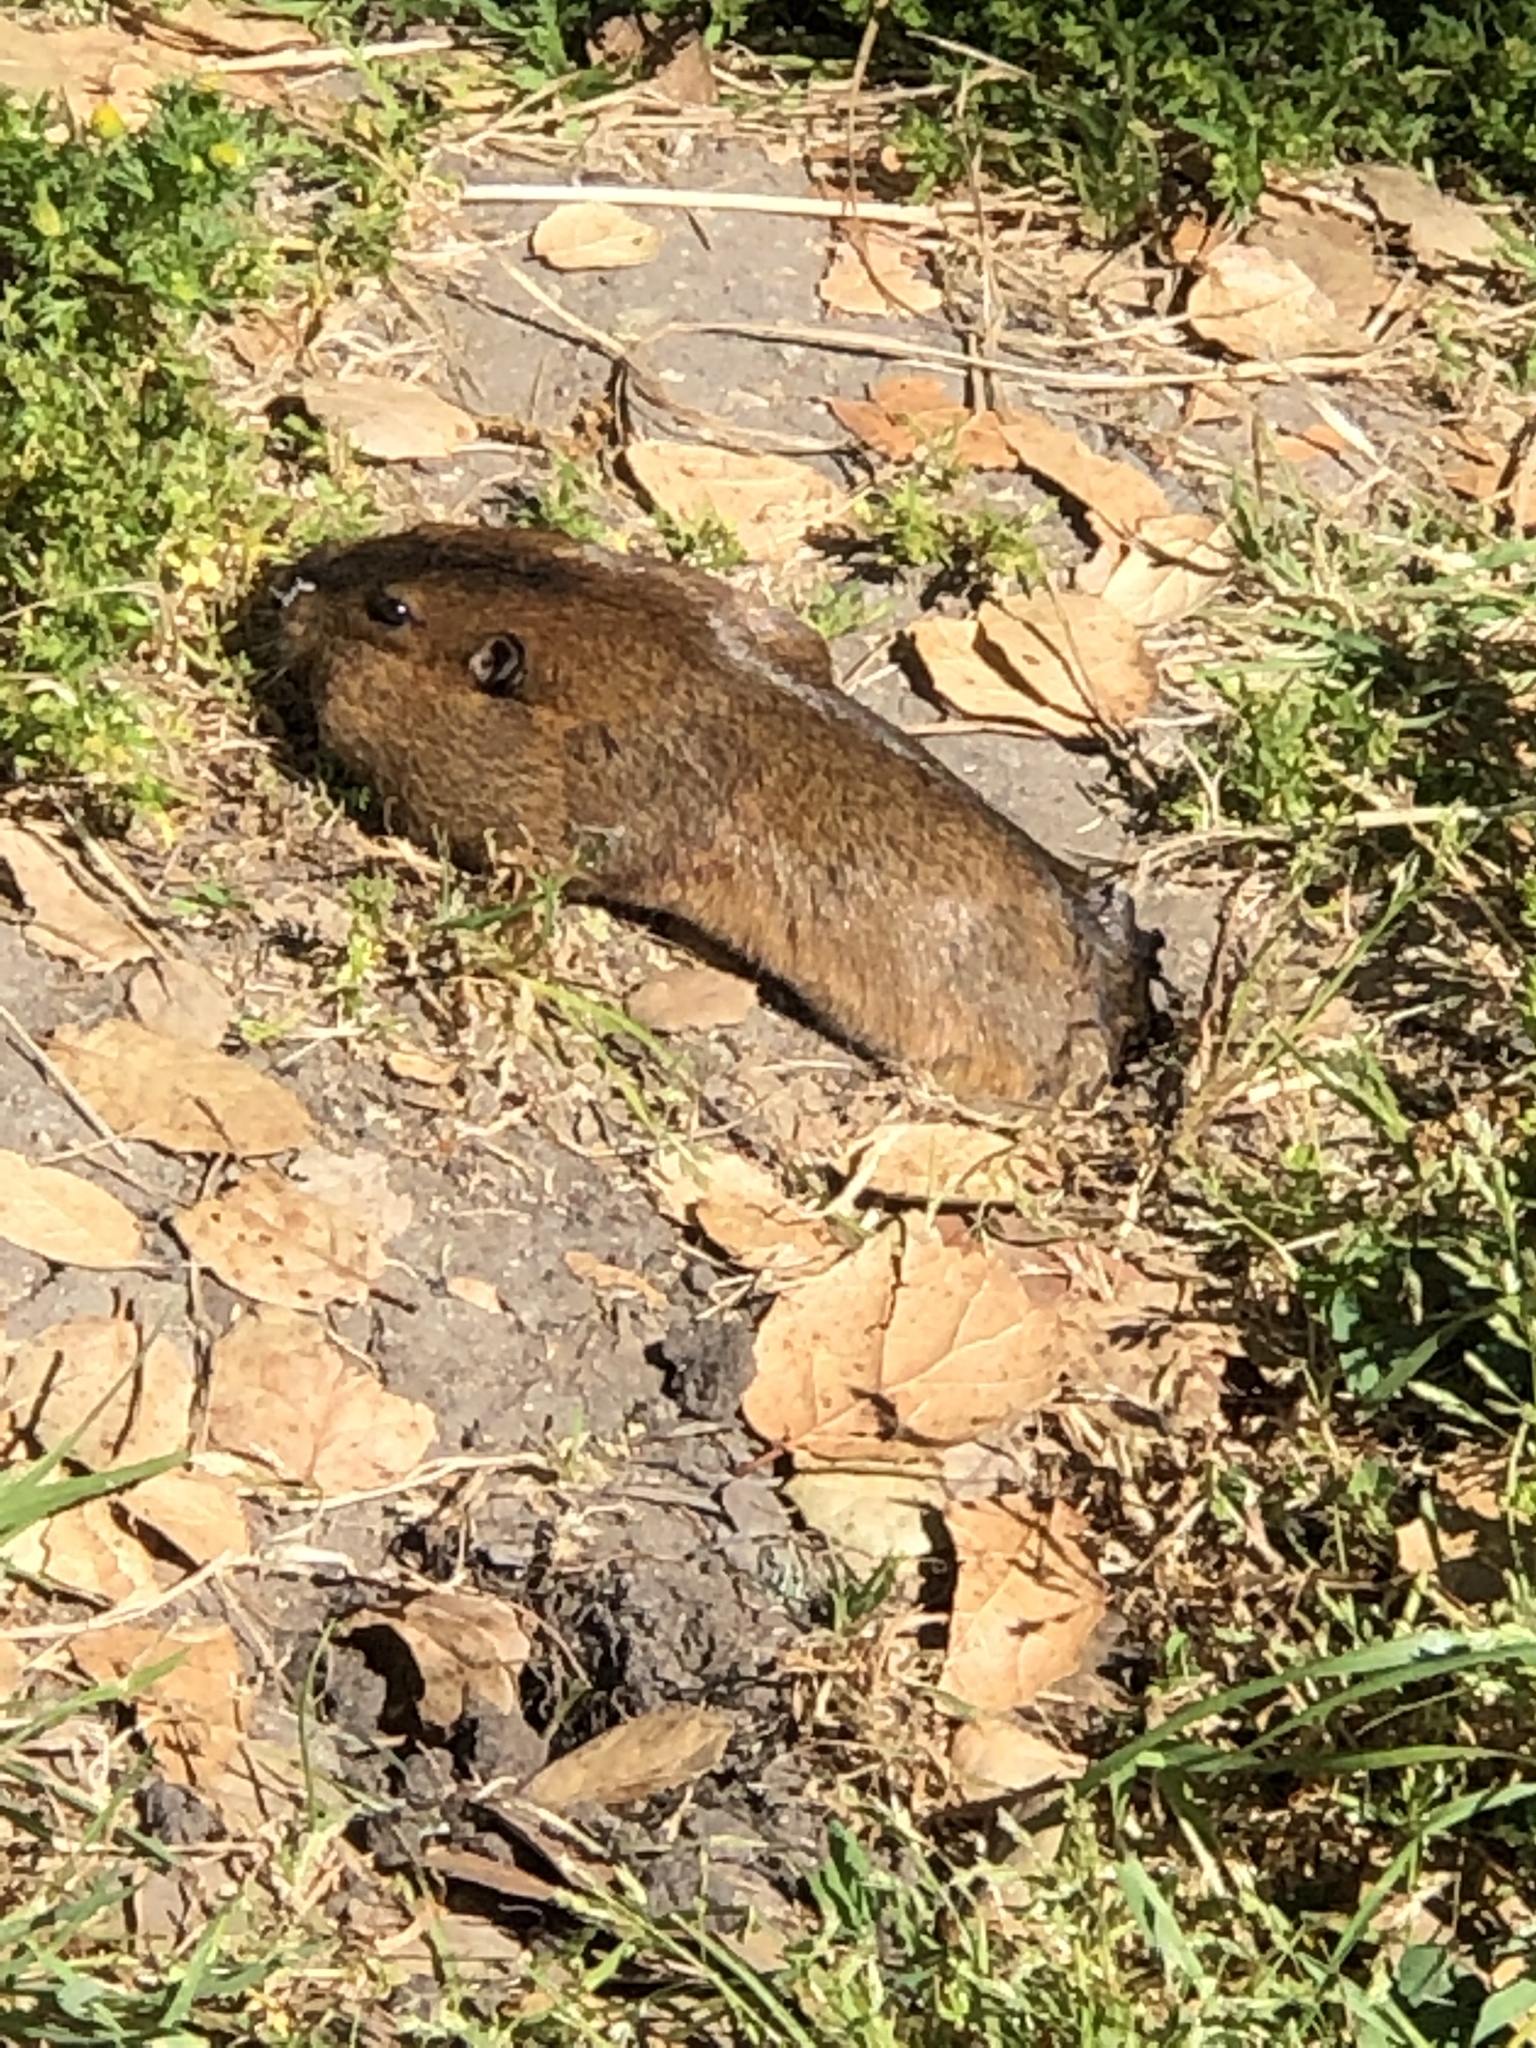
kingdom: Animalia
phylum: Chordata
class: Mammalia
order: Rodentia
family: Geomyidae
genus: Thomomys
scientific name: Thomomys bottae
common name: Botta's pocket gopher
